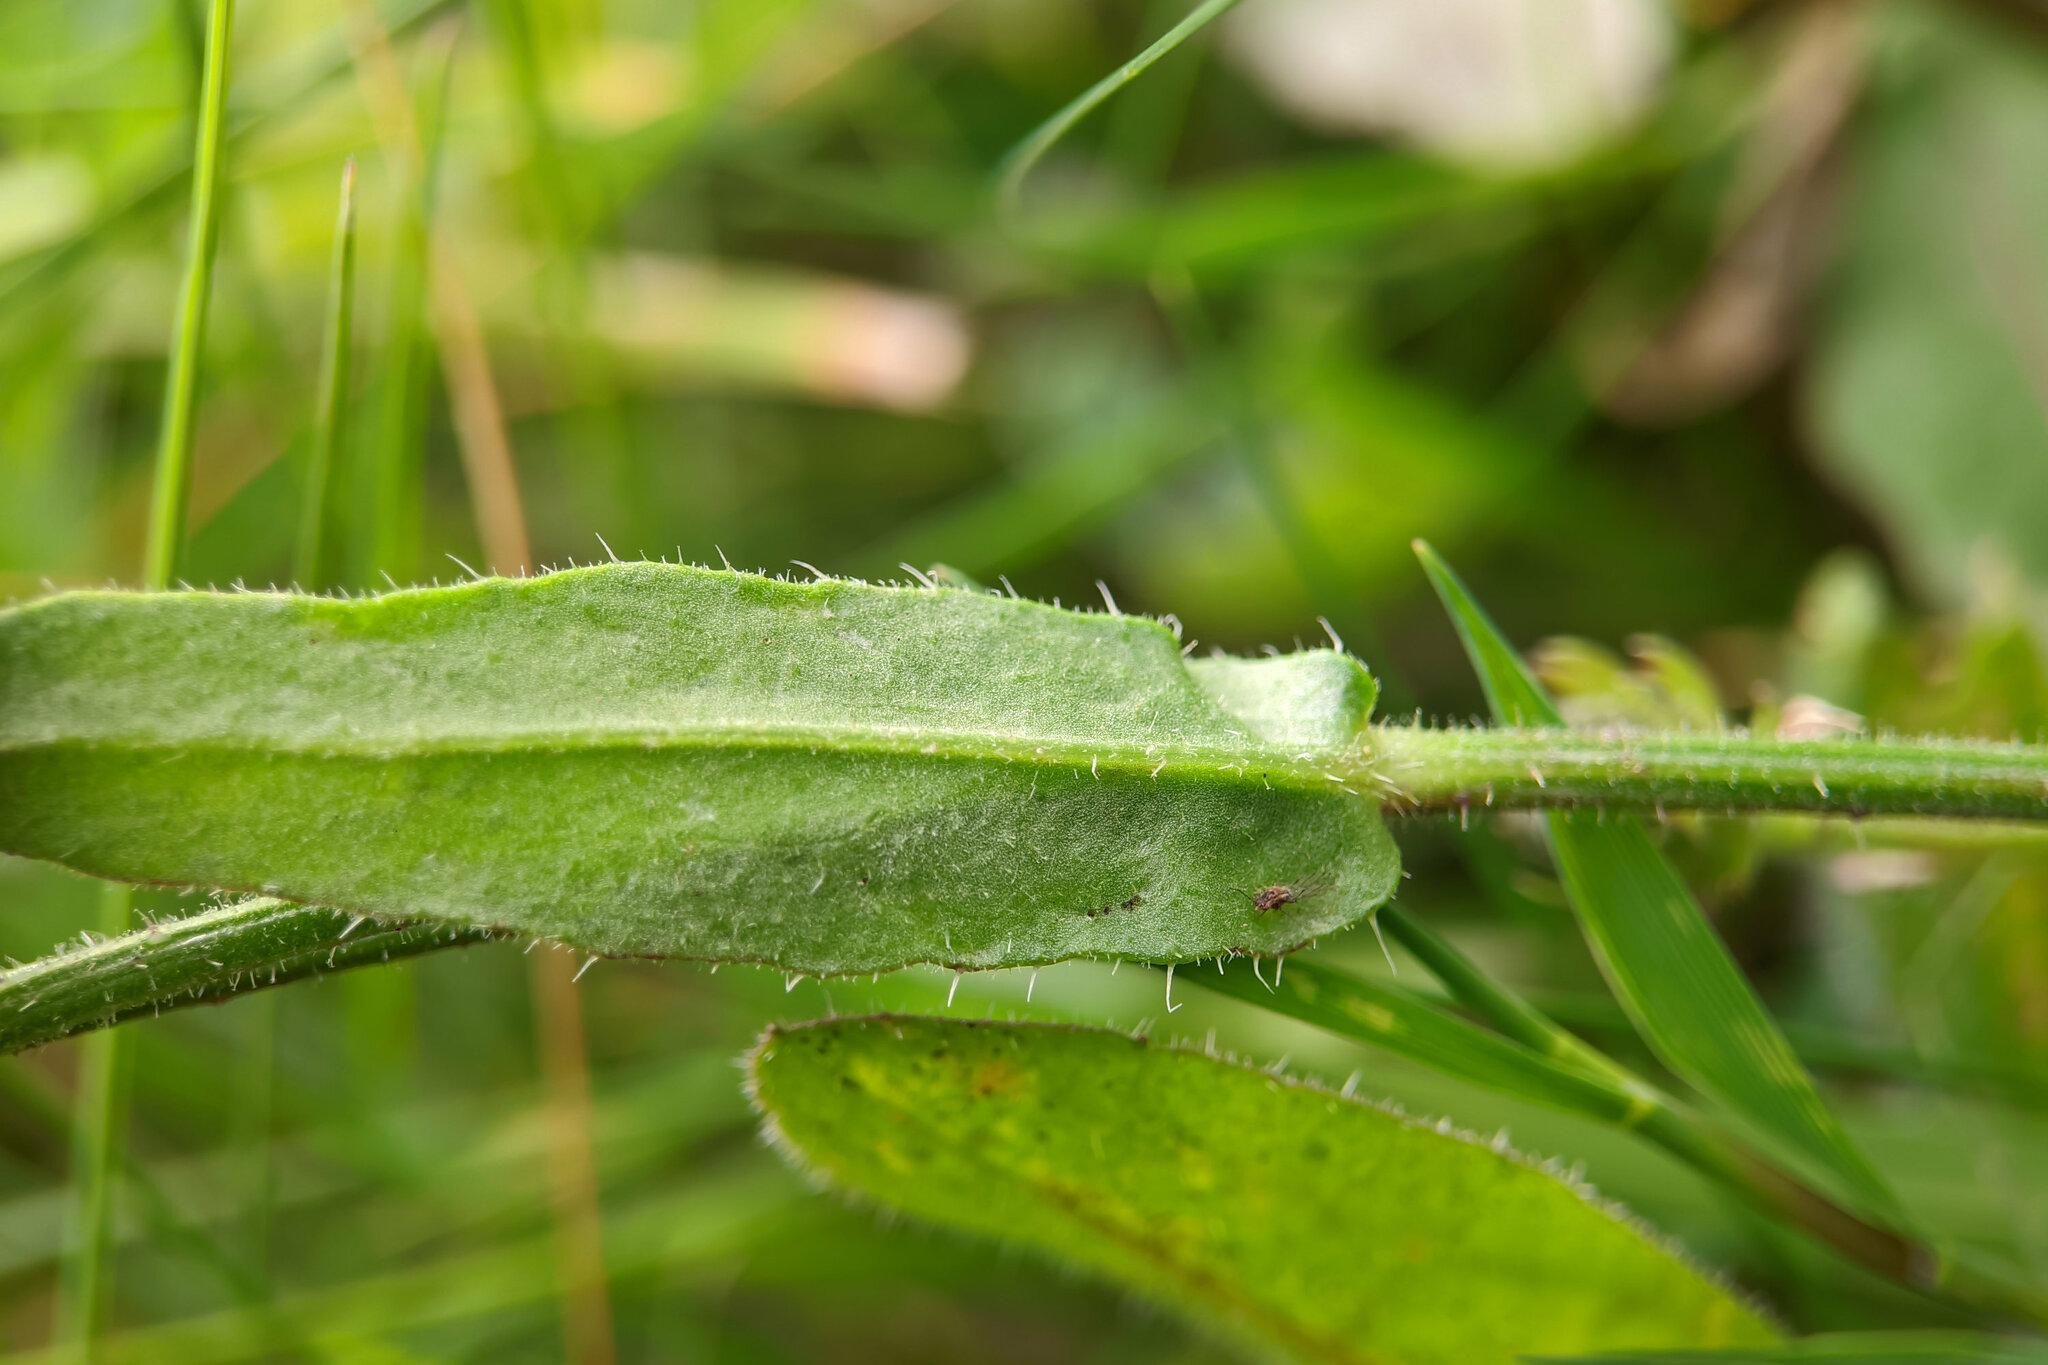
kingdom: Plantae
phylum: Tracheophyta
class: Magnoliopsida
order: Asterales
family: Asteraceae
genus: Picris
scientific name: Picris hieracioides
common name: Hawkweed oxtongue
